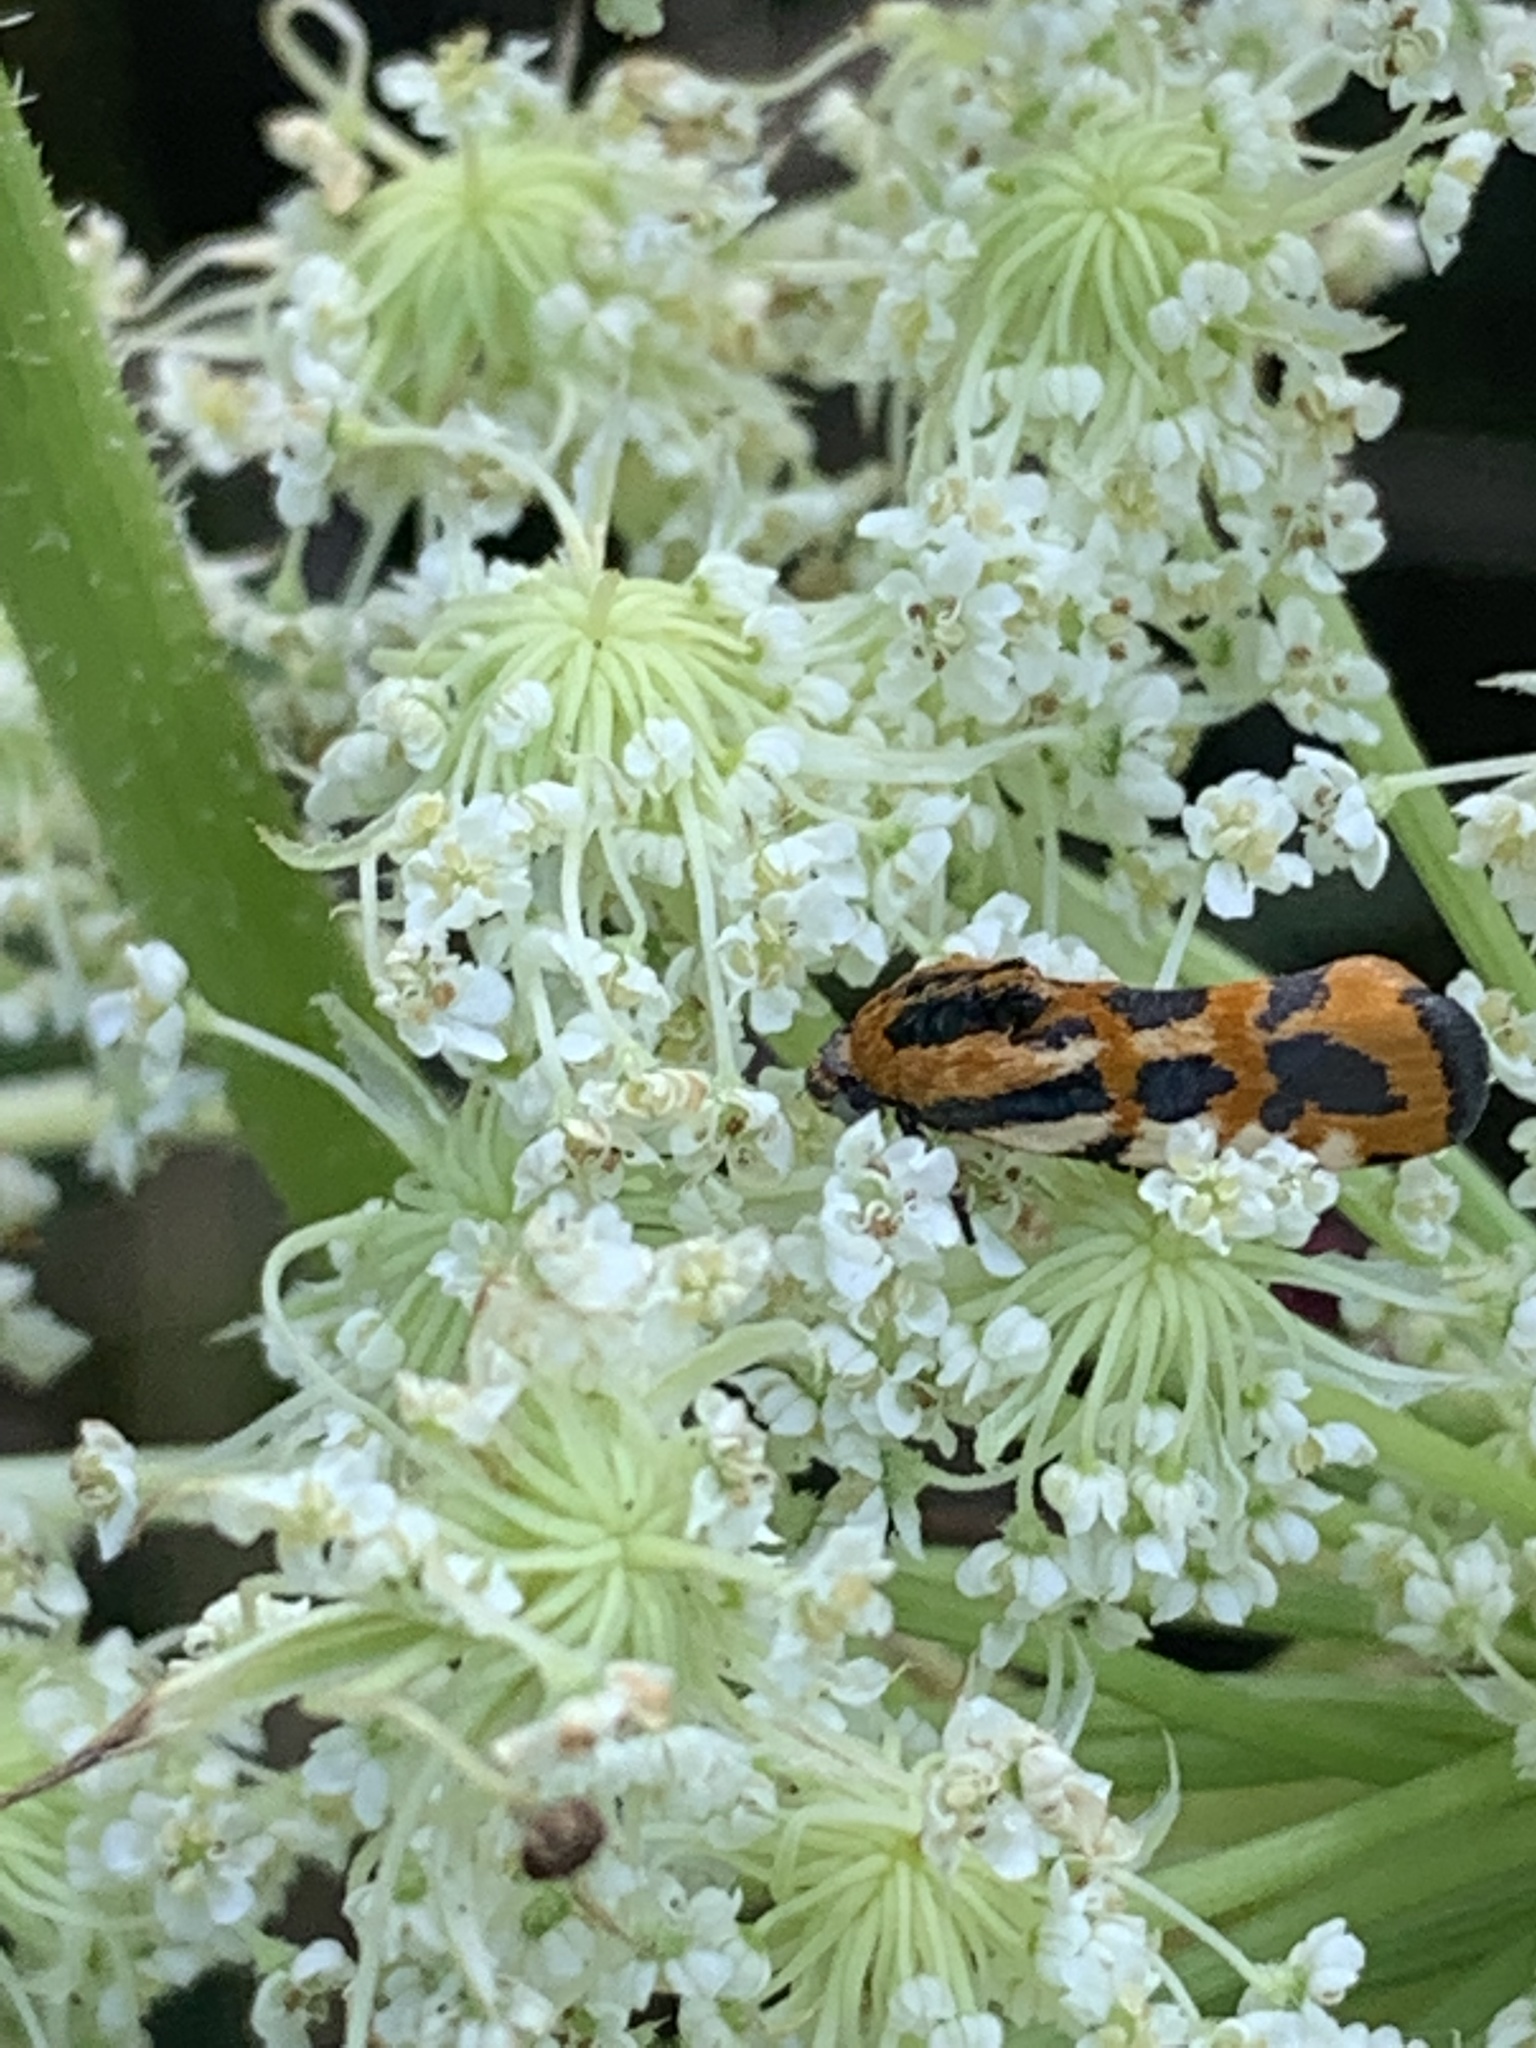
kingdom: Animalia
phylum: Arthropoda
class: Insecta
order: Lepidoptera
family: Noctuidae
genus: Acontia
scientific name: Acontia leo
